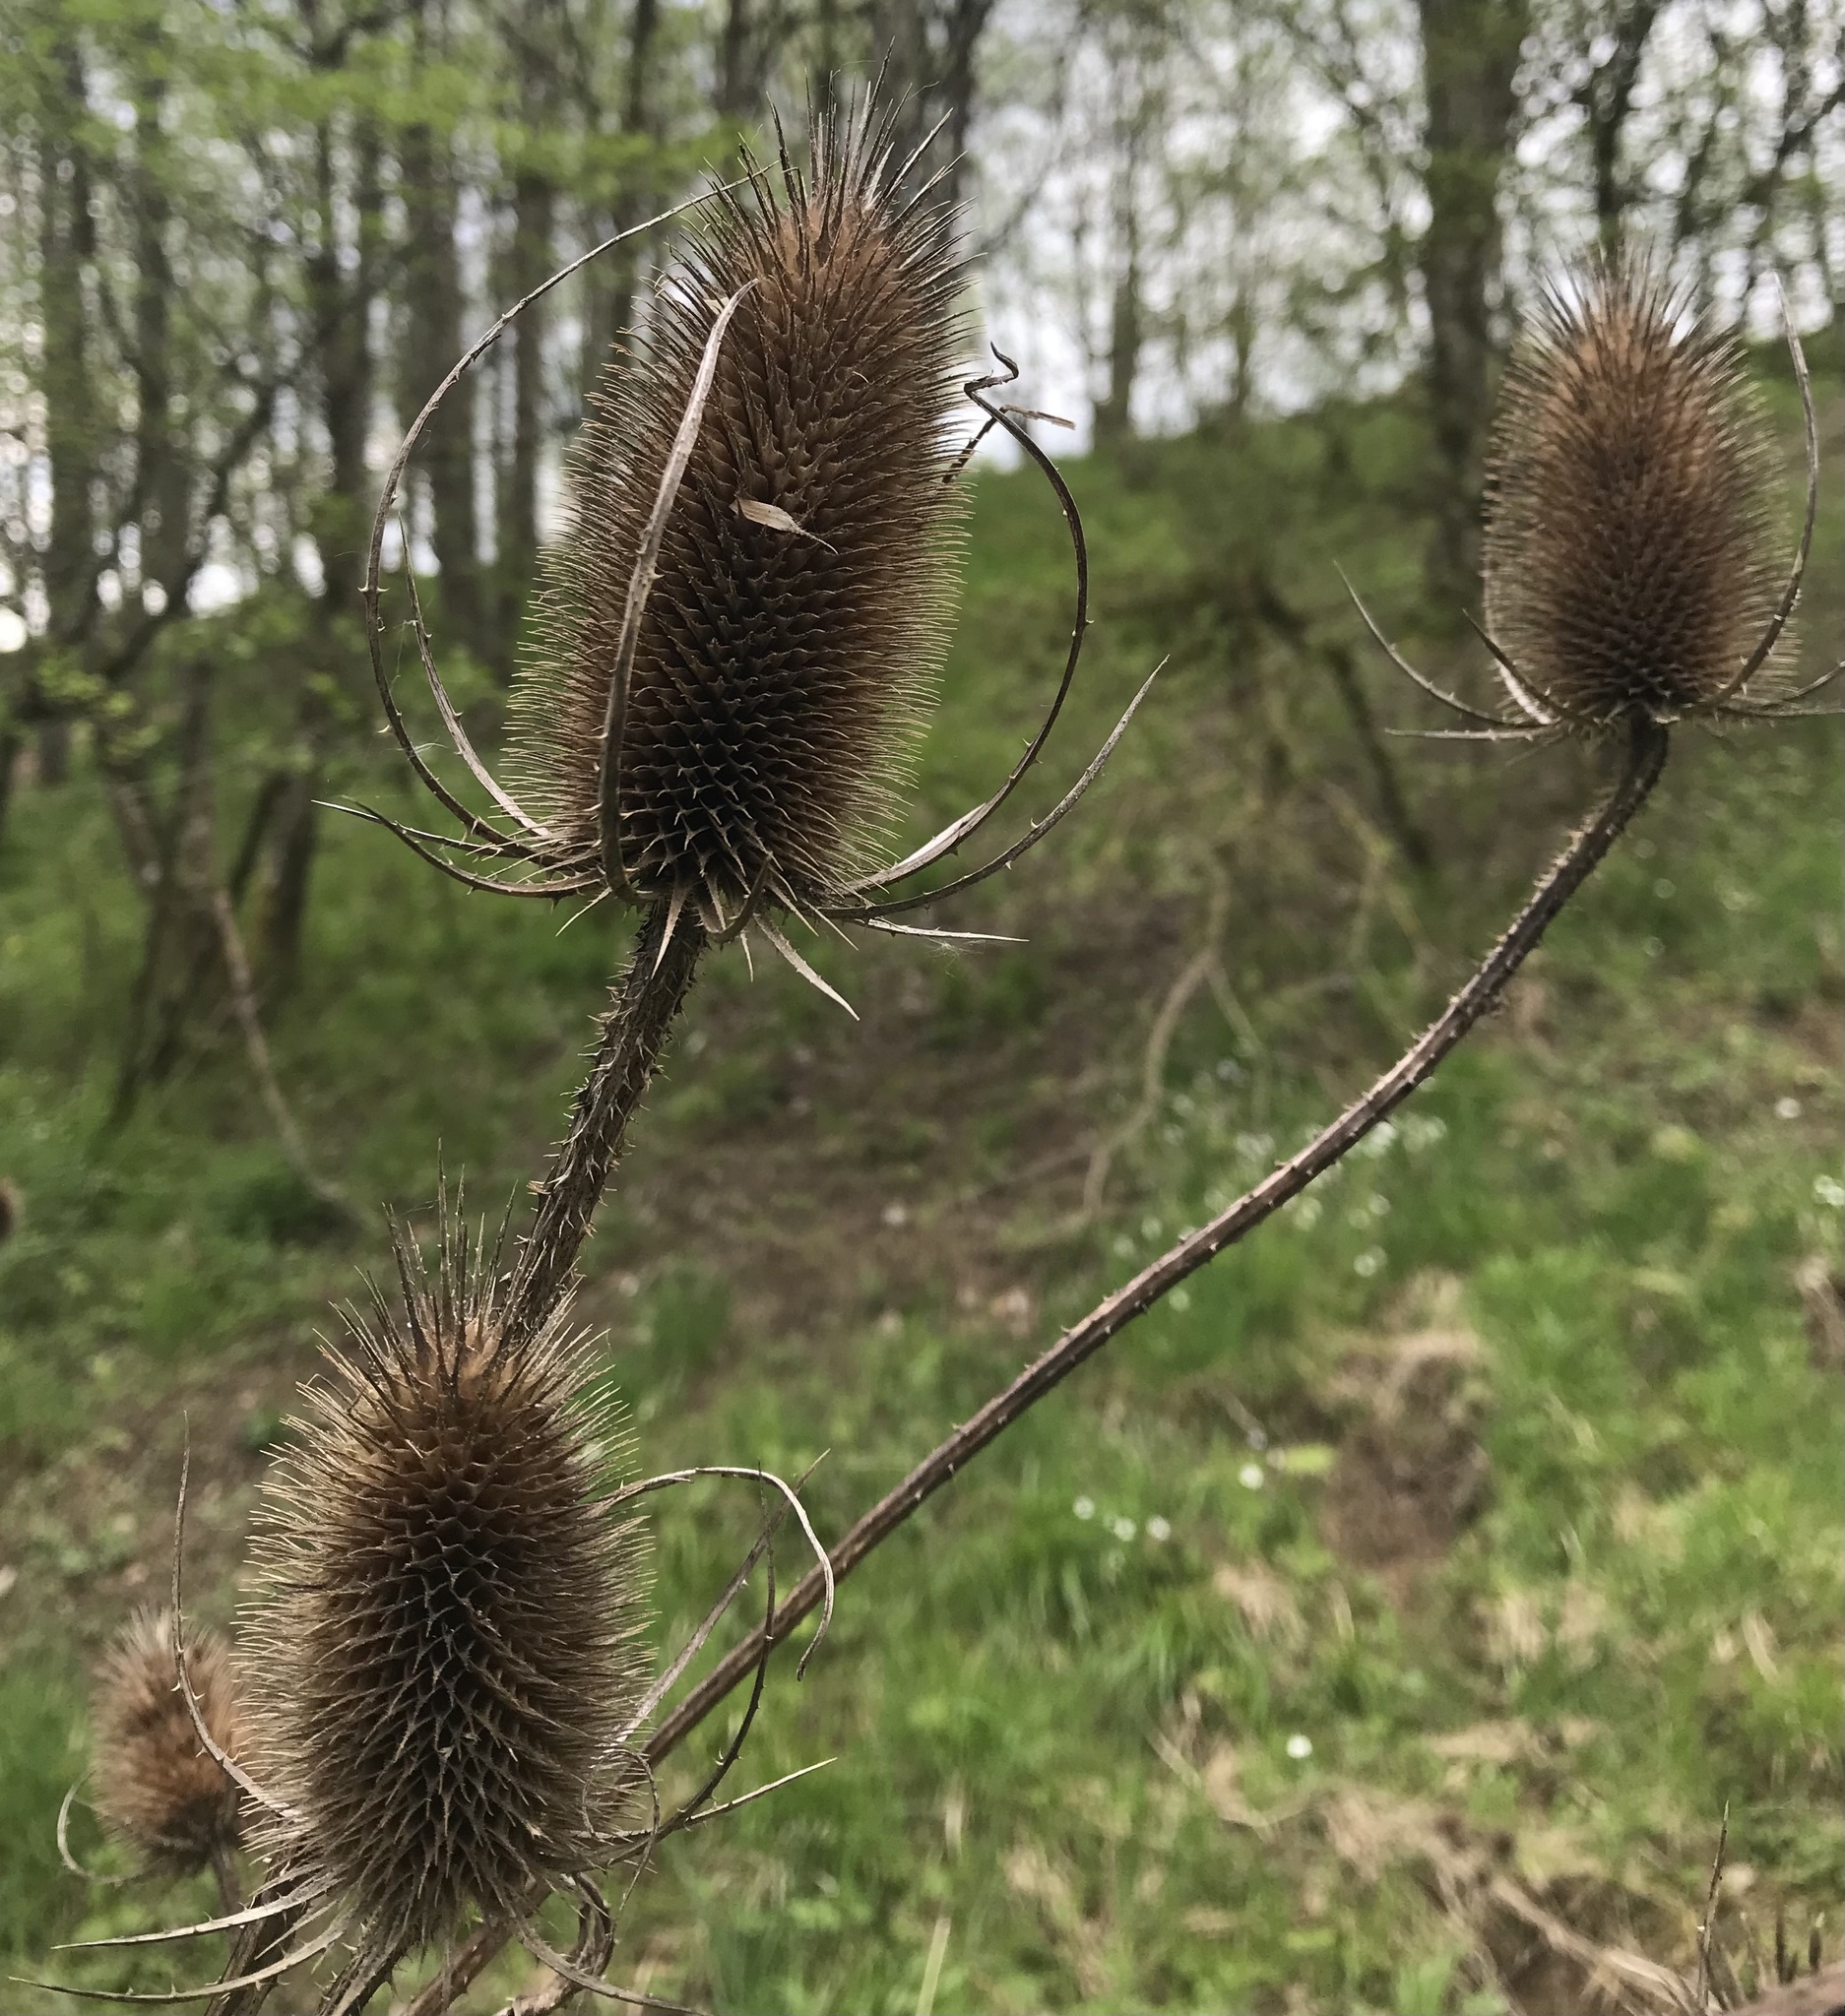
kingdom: Plantae
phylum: Tracheophyta
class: Magnoliopsida
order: Dipsacales
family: Caprifoliaceae
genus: Dipsacus
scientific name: Dipsacus fullonum
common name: Teasel
